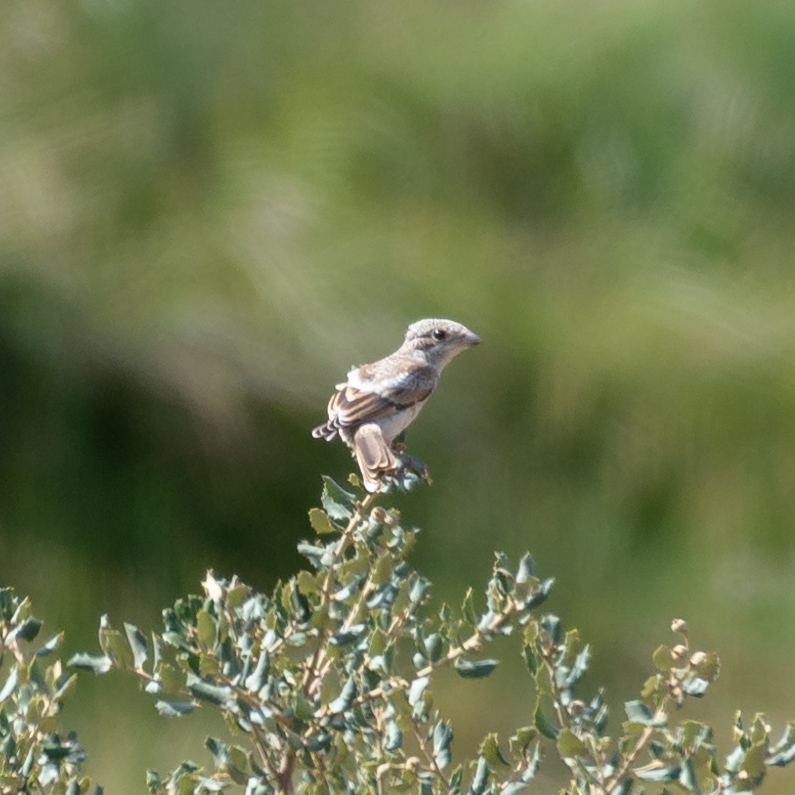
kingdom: Animalia
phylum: Chordata
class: Aves
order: Passeriformes
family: Laniidae
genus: Lanius
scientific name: Lanius senator
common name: Woodchat shrike
